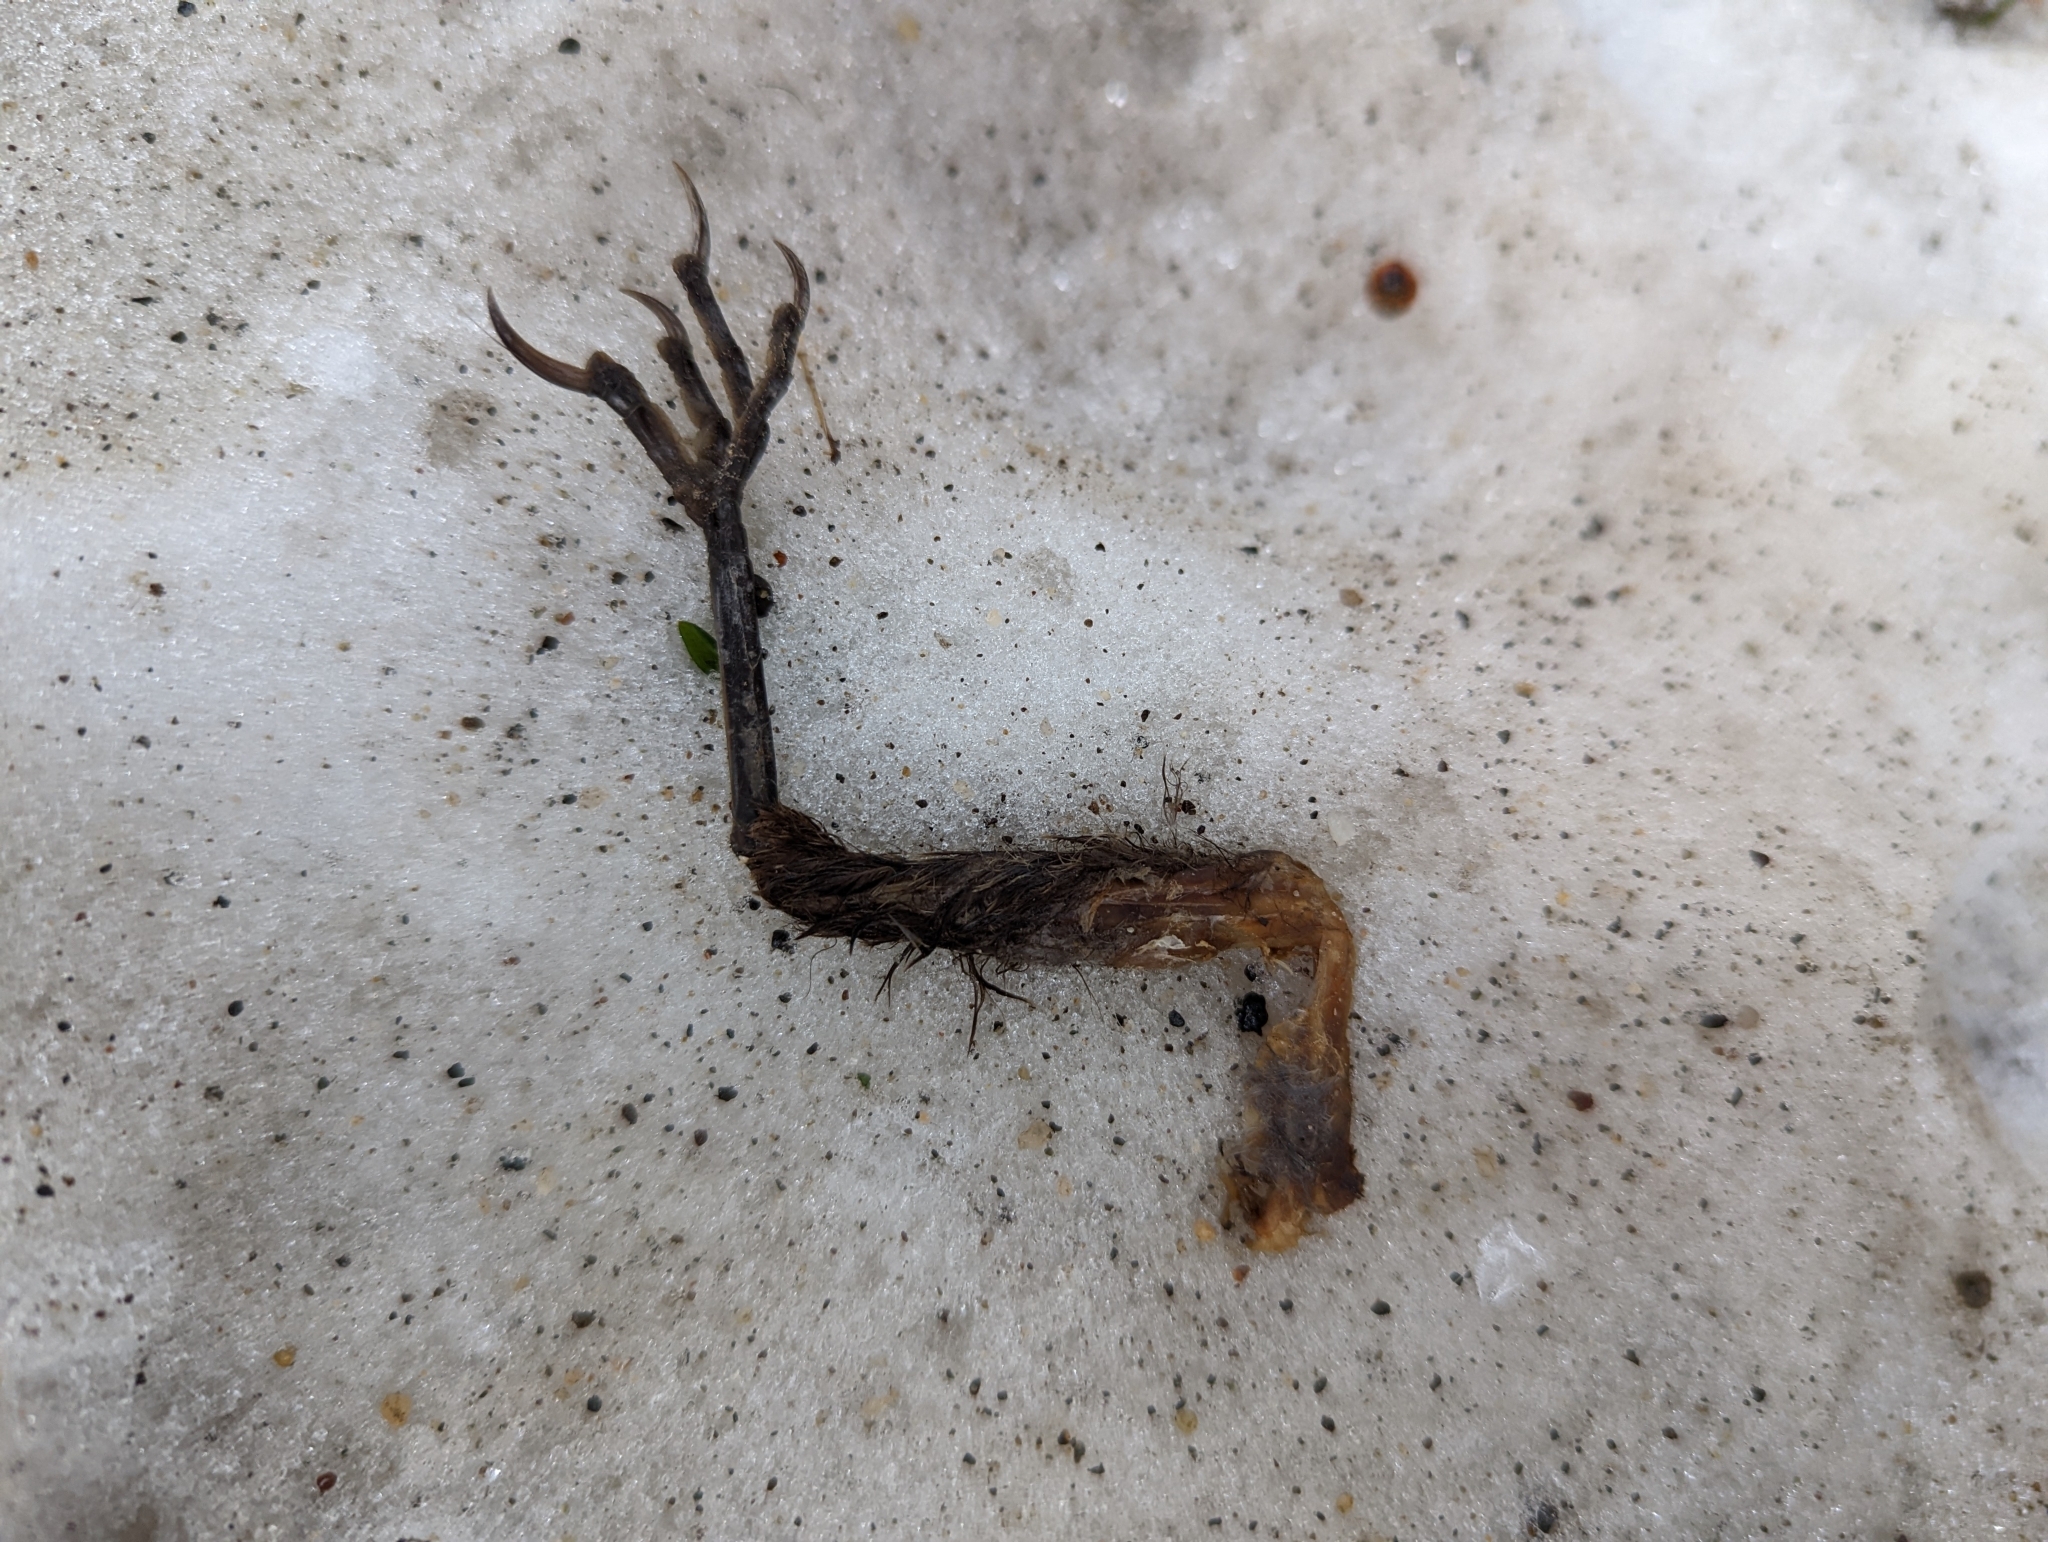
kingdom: Animalia
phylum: Chordata
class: Aves
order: Passeriformes
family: Passeridae
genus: Passer
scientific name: Passer domesticus
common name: House sparrow
